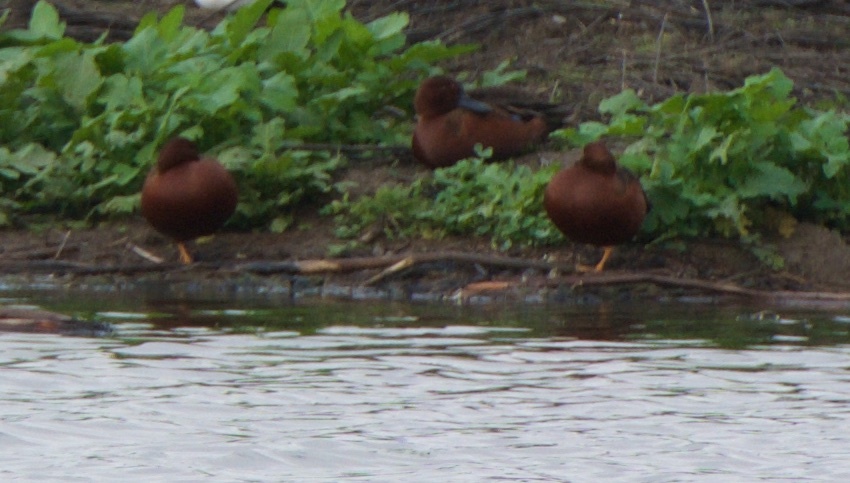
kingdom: Animalia
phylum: Chordata
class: Aves
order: Anseriformes
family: Anatidae
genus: Spatula
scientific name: Spatula cyanoptera
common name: Cinnamon teal
